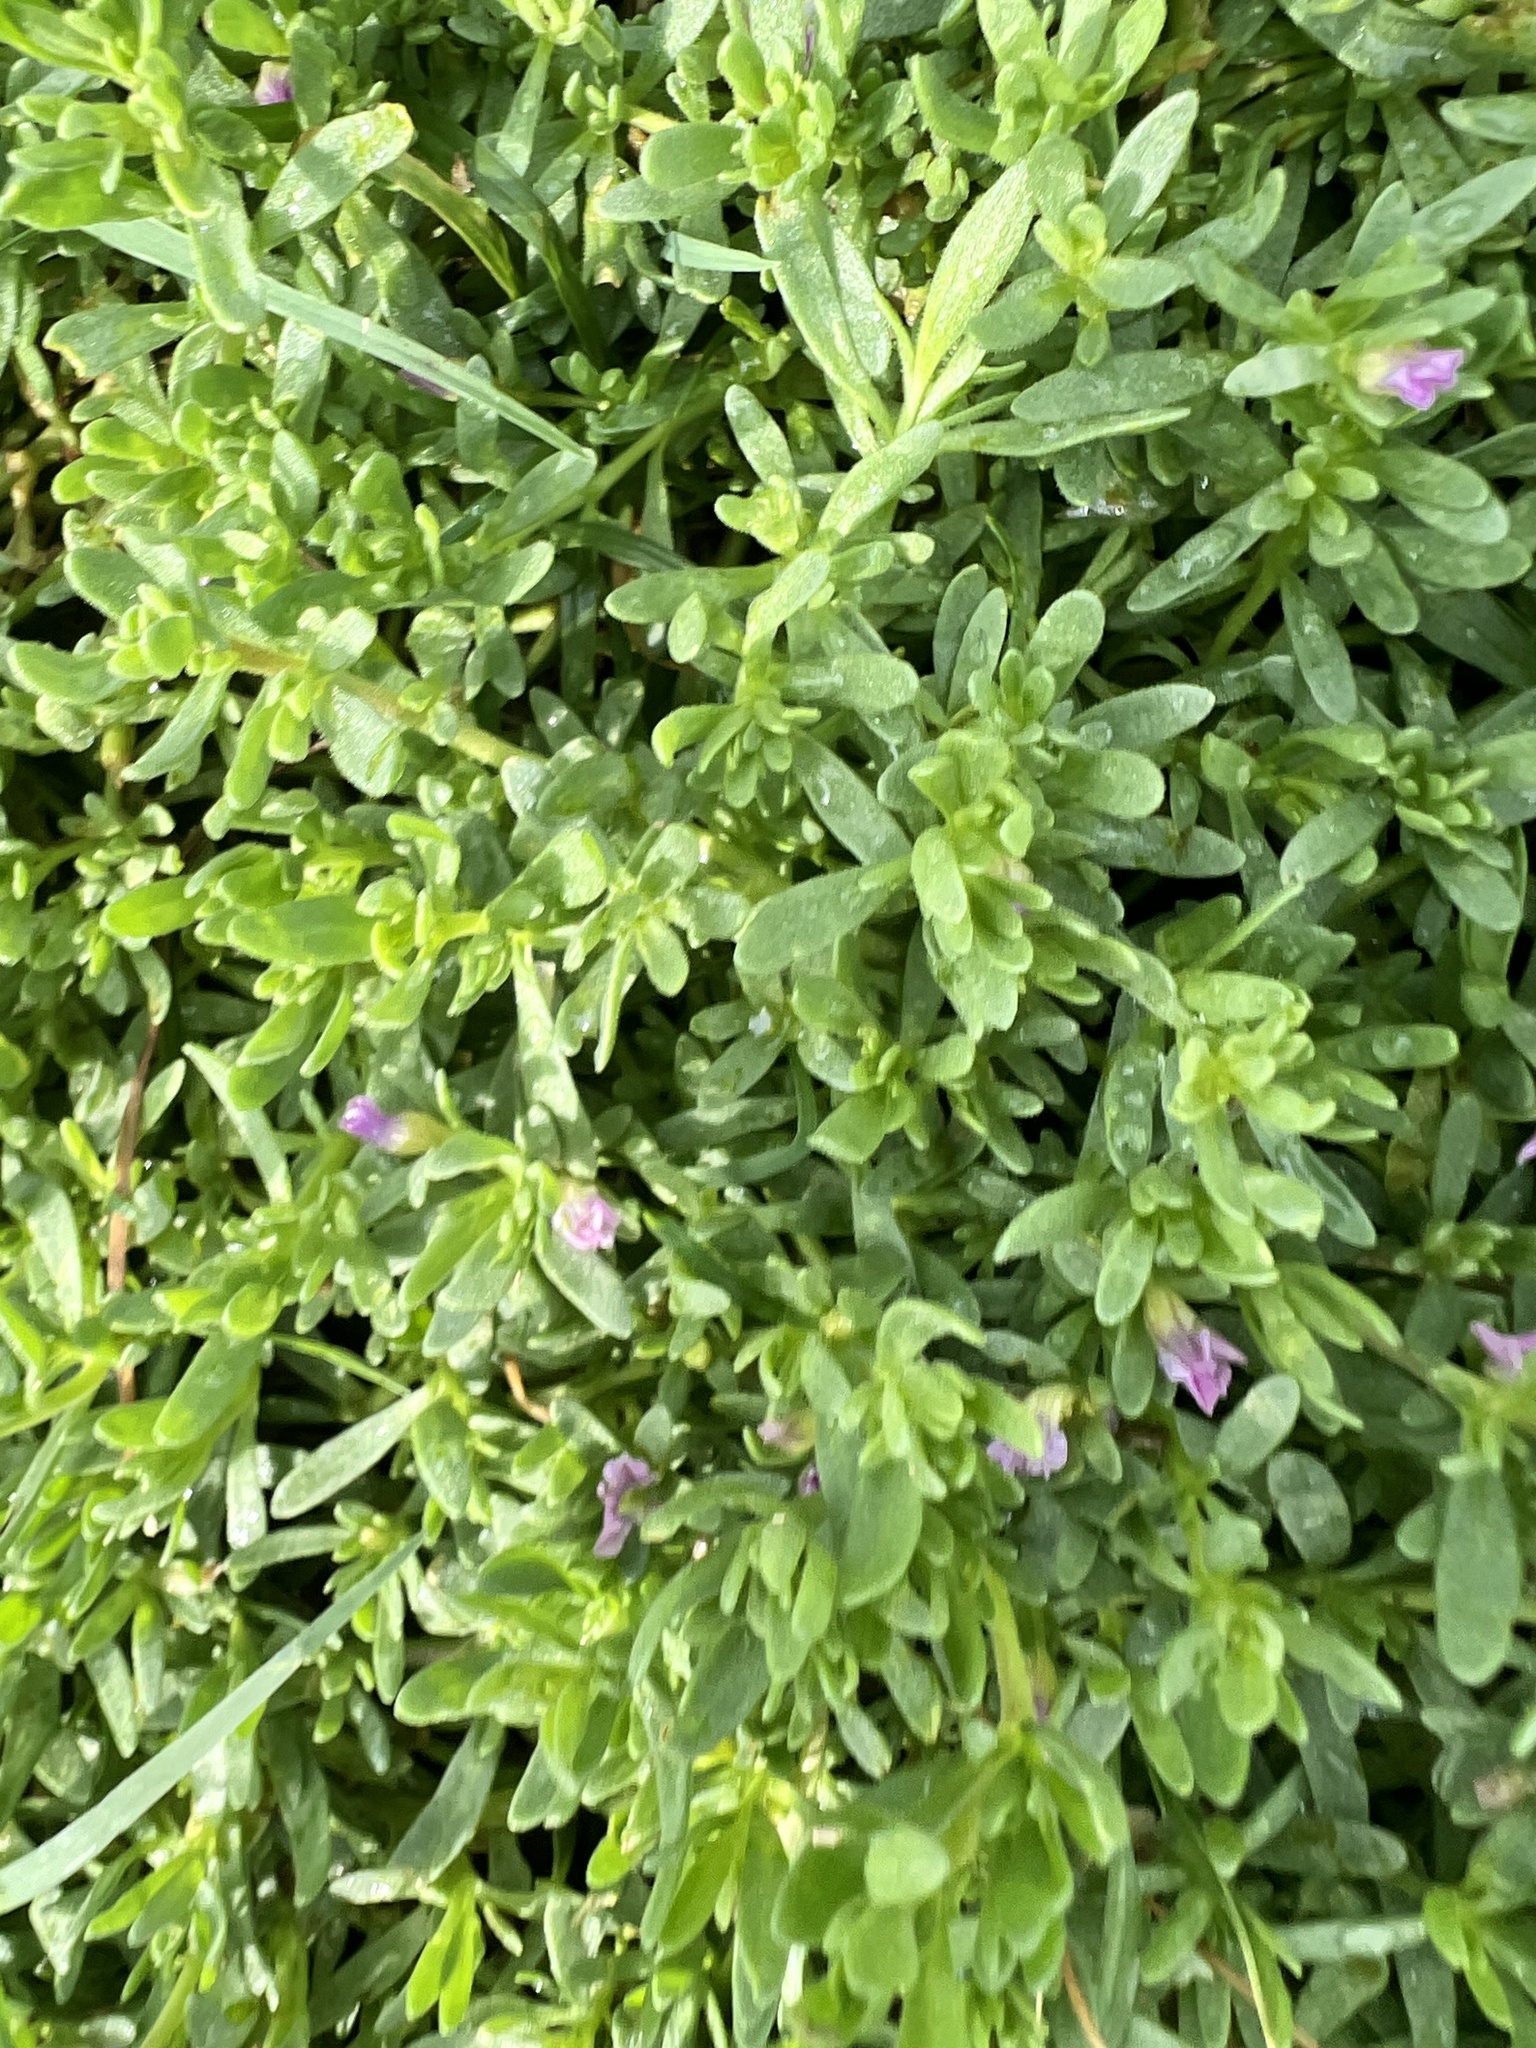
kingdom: Plantae
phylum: Tracheophyta
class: Magnoliopsida
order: Solanales
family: Solanaceae
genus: Calibrachoa
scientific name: Calibrachoa parviflora
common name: Seaside petunia
